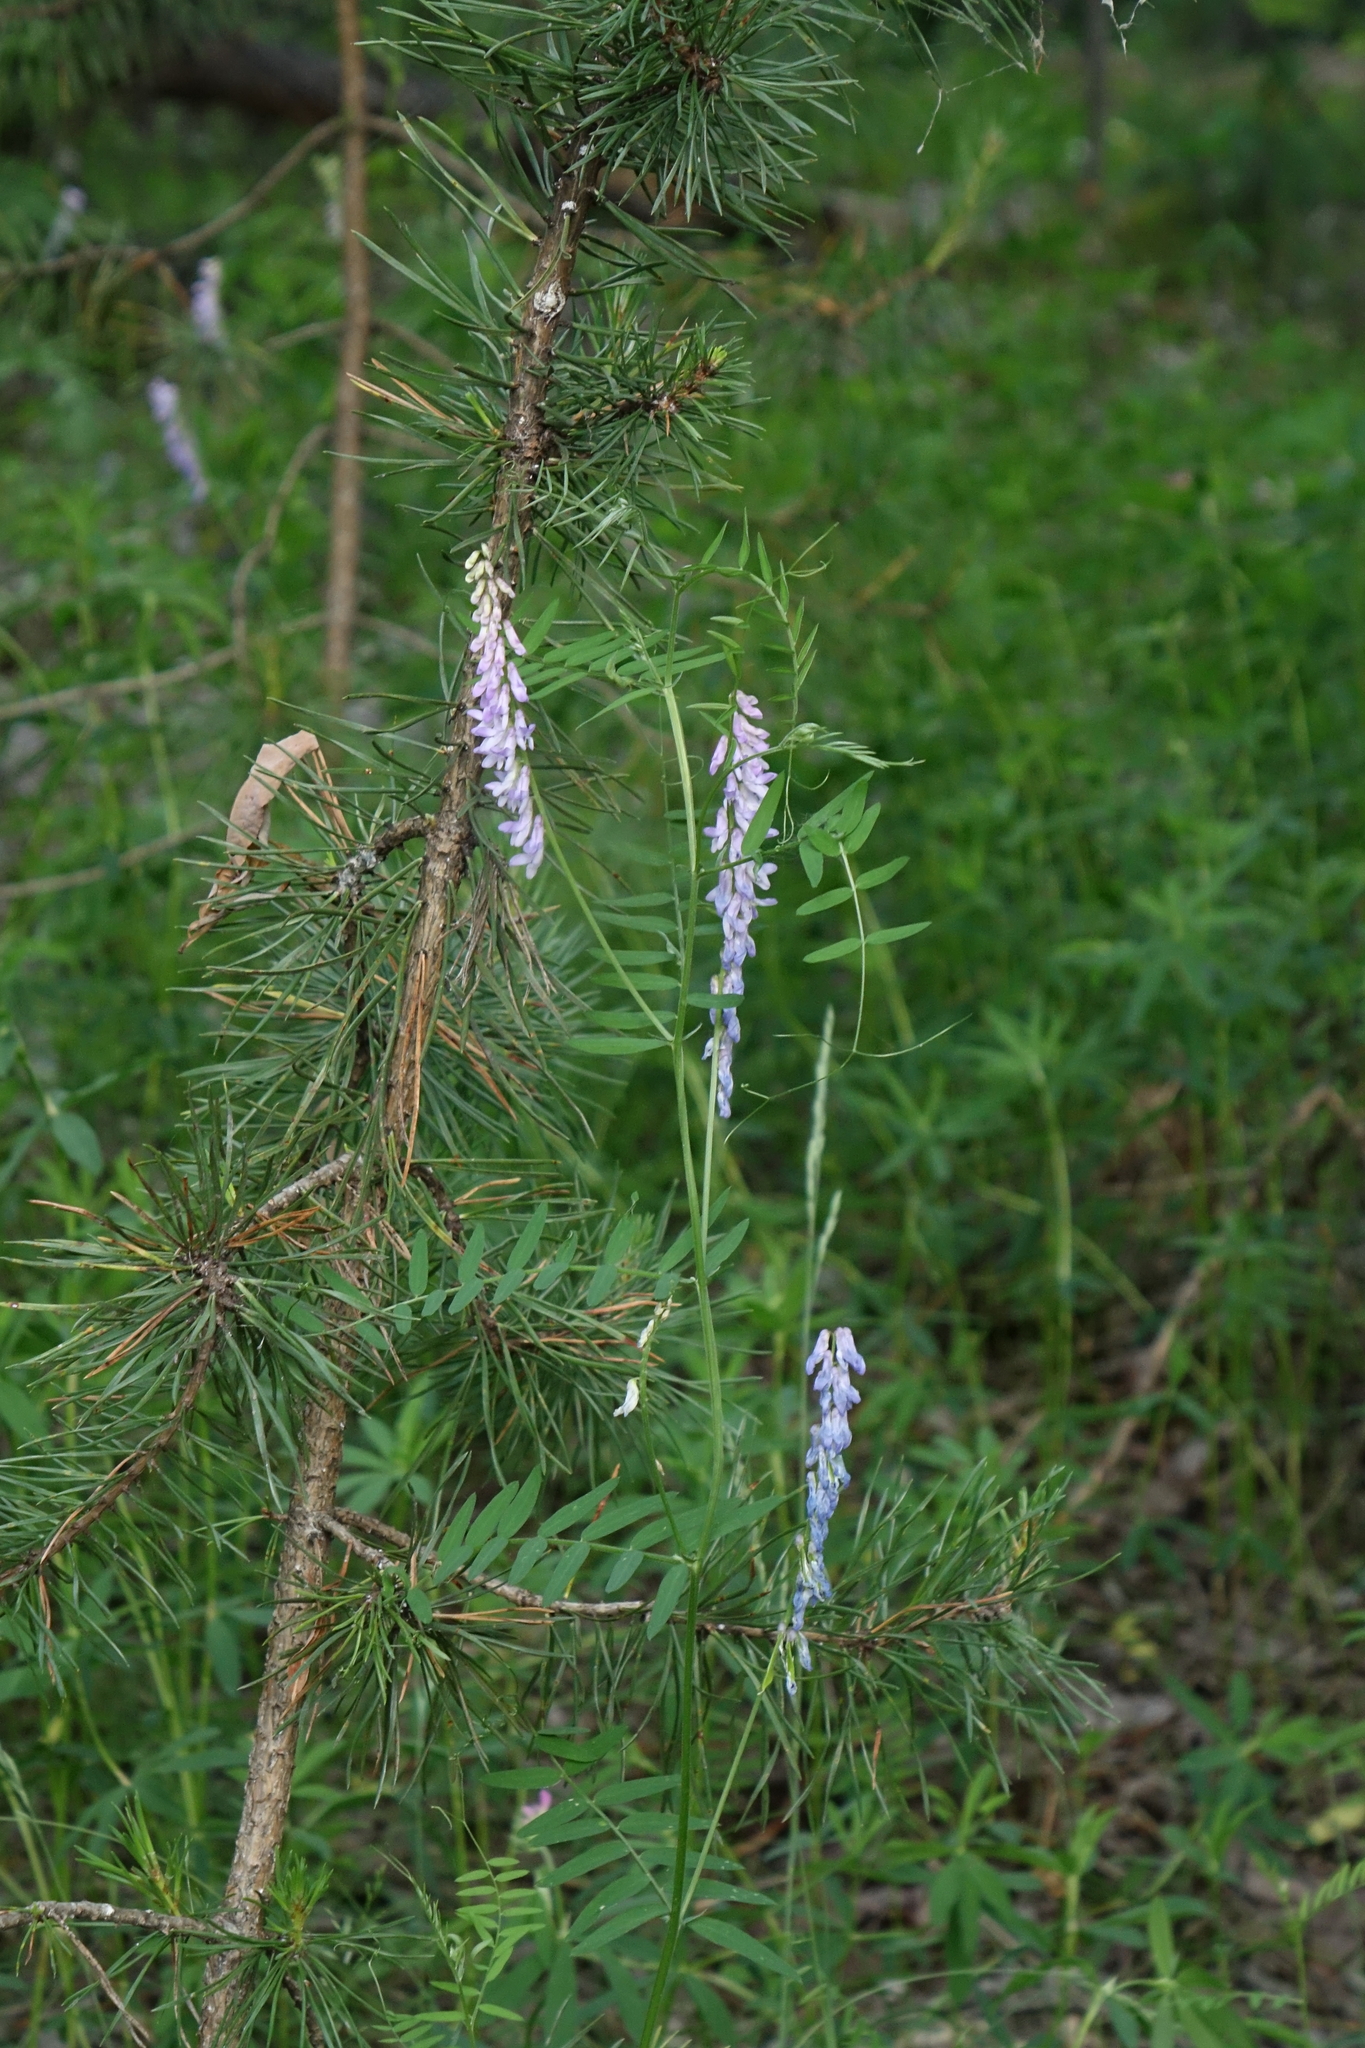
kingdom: Plantae
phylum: Tracheophyta
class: Magnoliopsida
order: Fabales
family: Fabaceae
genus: Vicia
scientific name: Vicia cracca
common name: Bird vetch
